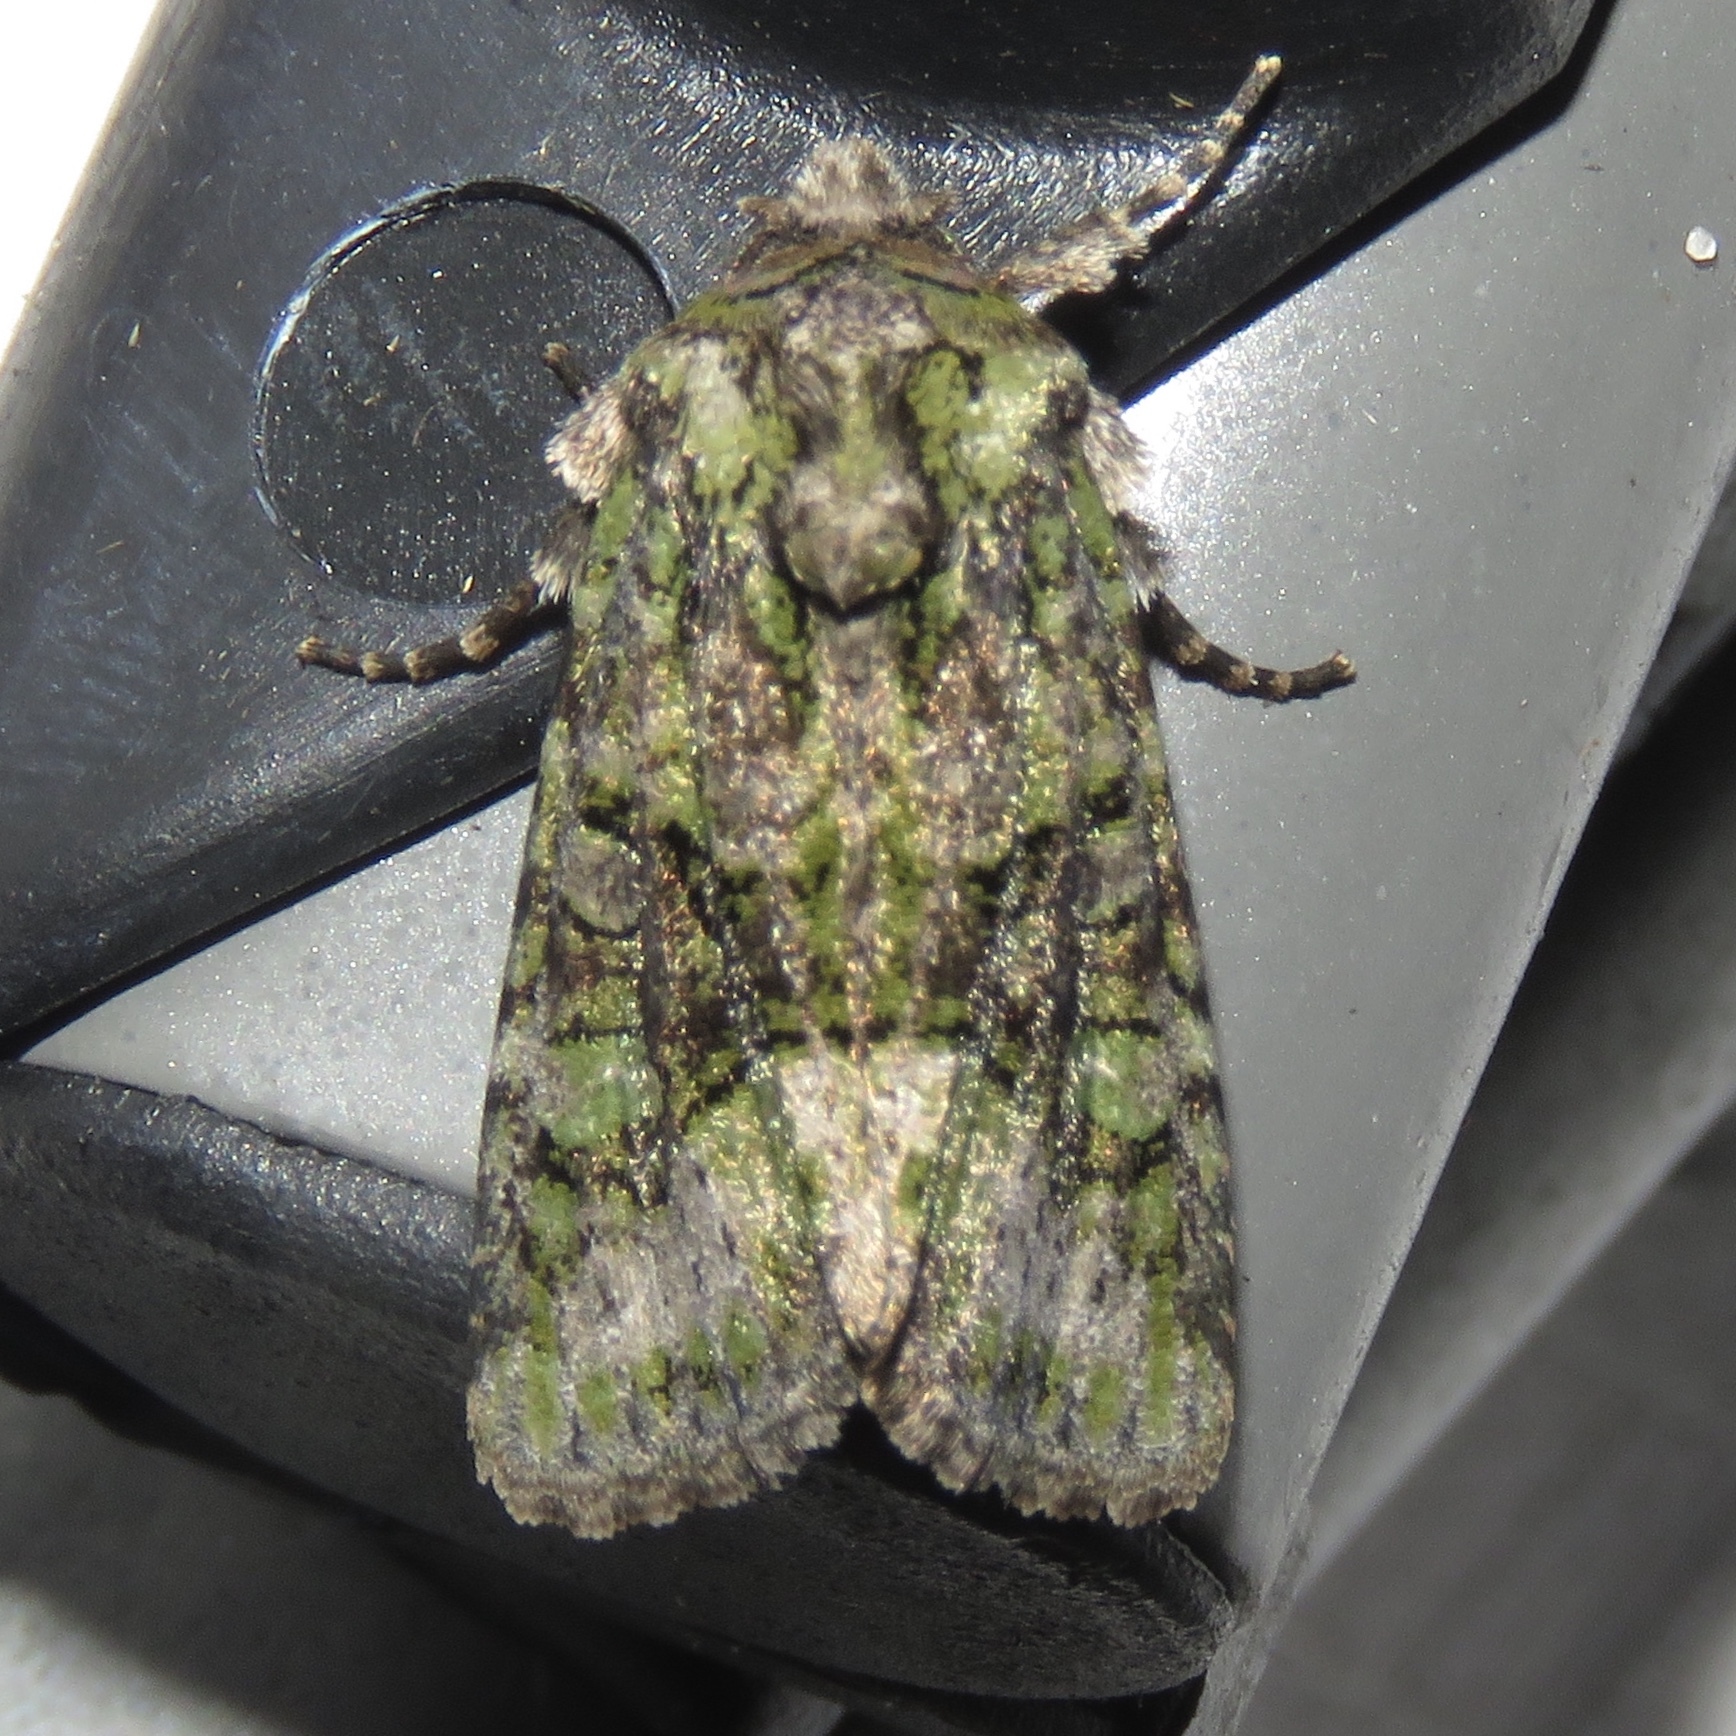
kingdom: Animalia
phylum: Arthropoda
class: Insecta
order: Lepidoptera
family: Noctuidae
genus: Lacinipolia
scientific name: Lacinipolia olivacea
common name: Olive arches moth
